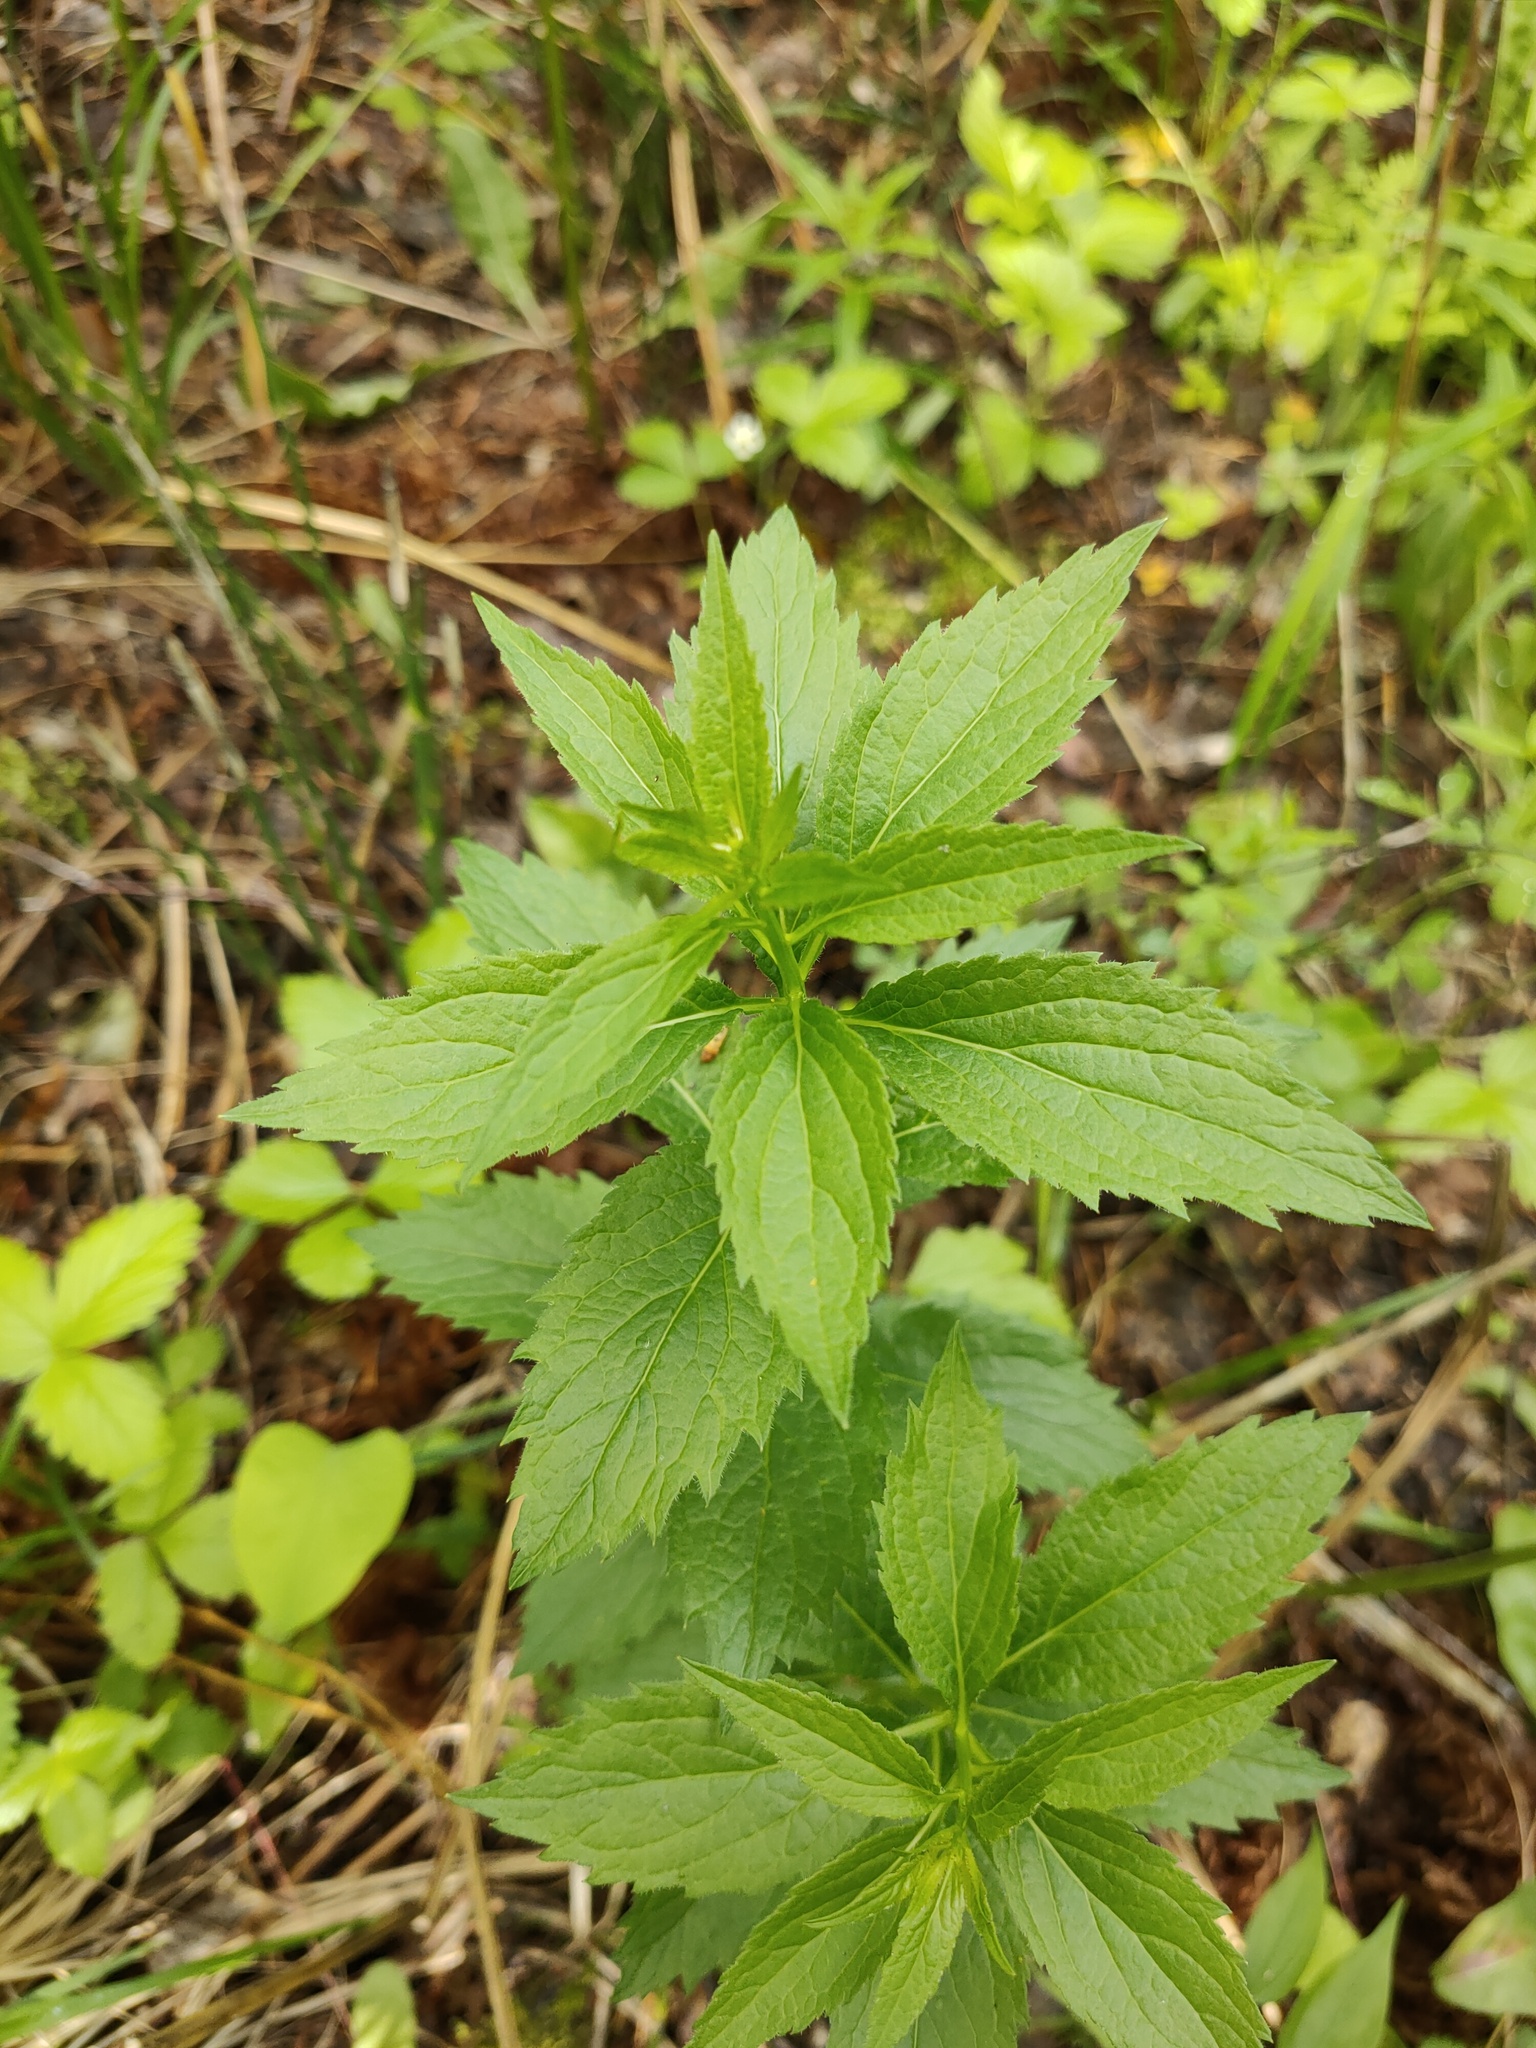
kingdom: Plantae
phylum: Tracheophyta
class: Magnoliopsida
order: Asterales
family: Campanulaceae
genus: Adenophora
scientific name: Adenophora liliifolia
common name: Lilyleaf ladybells
